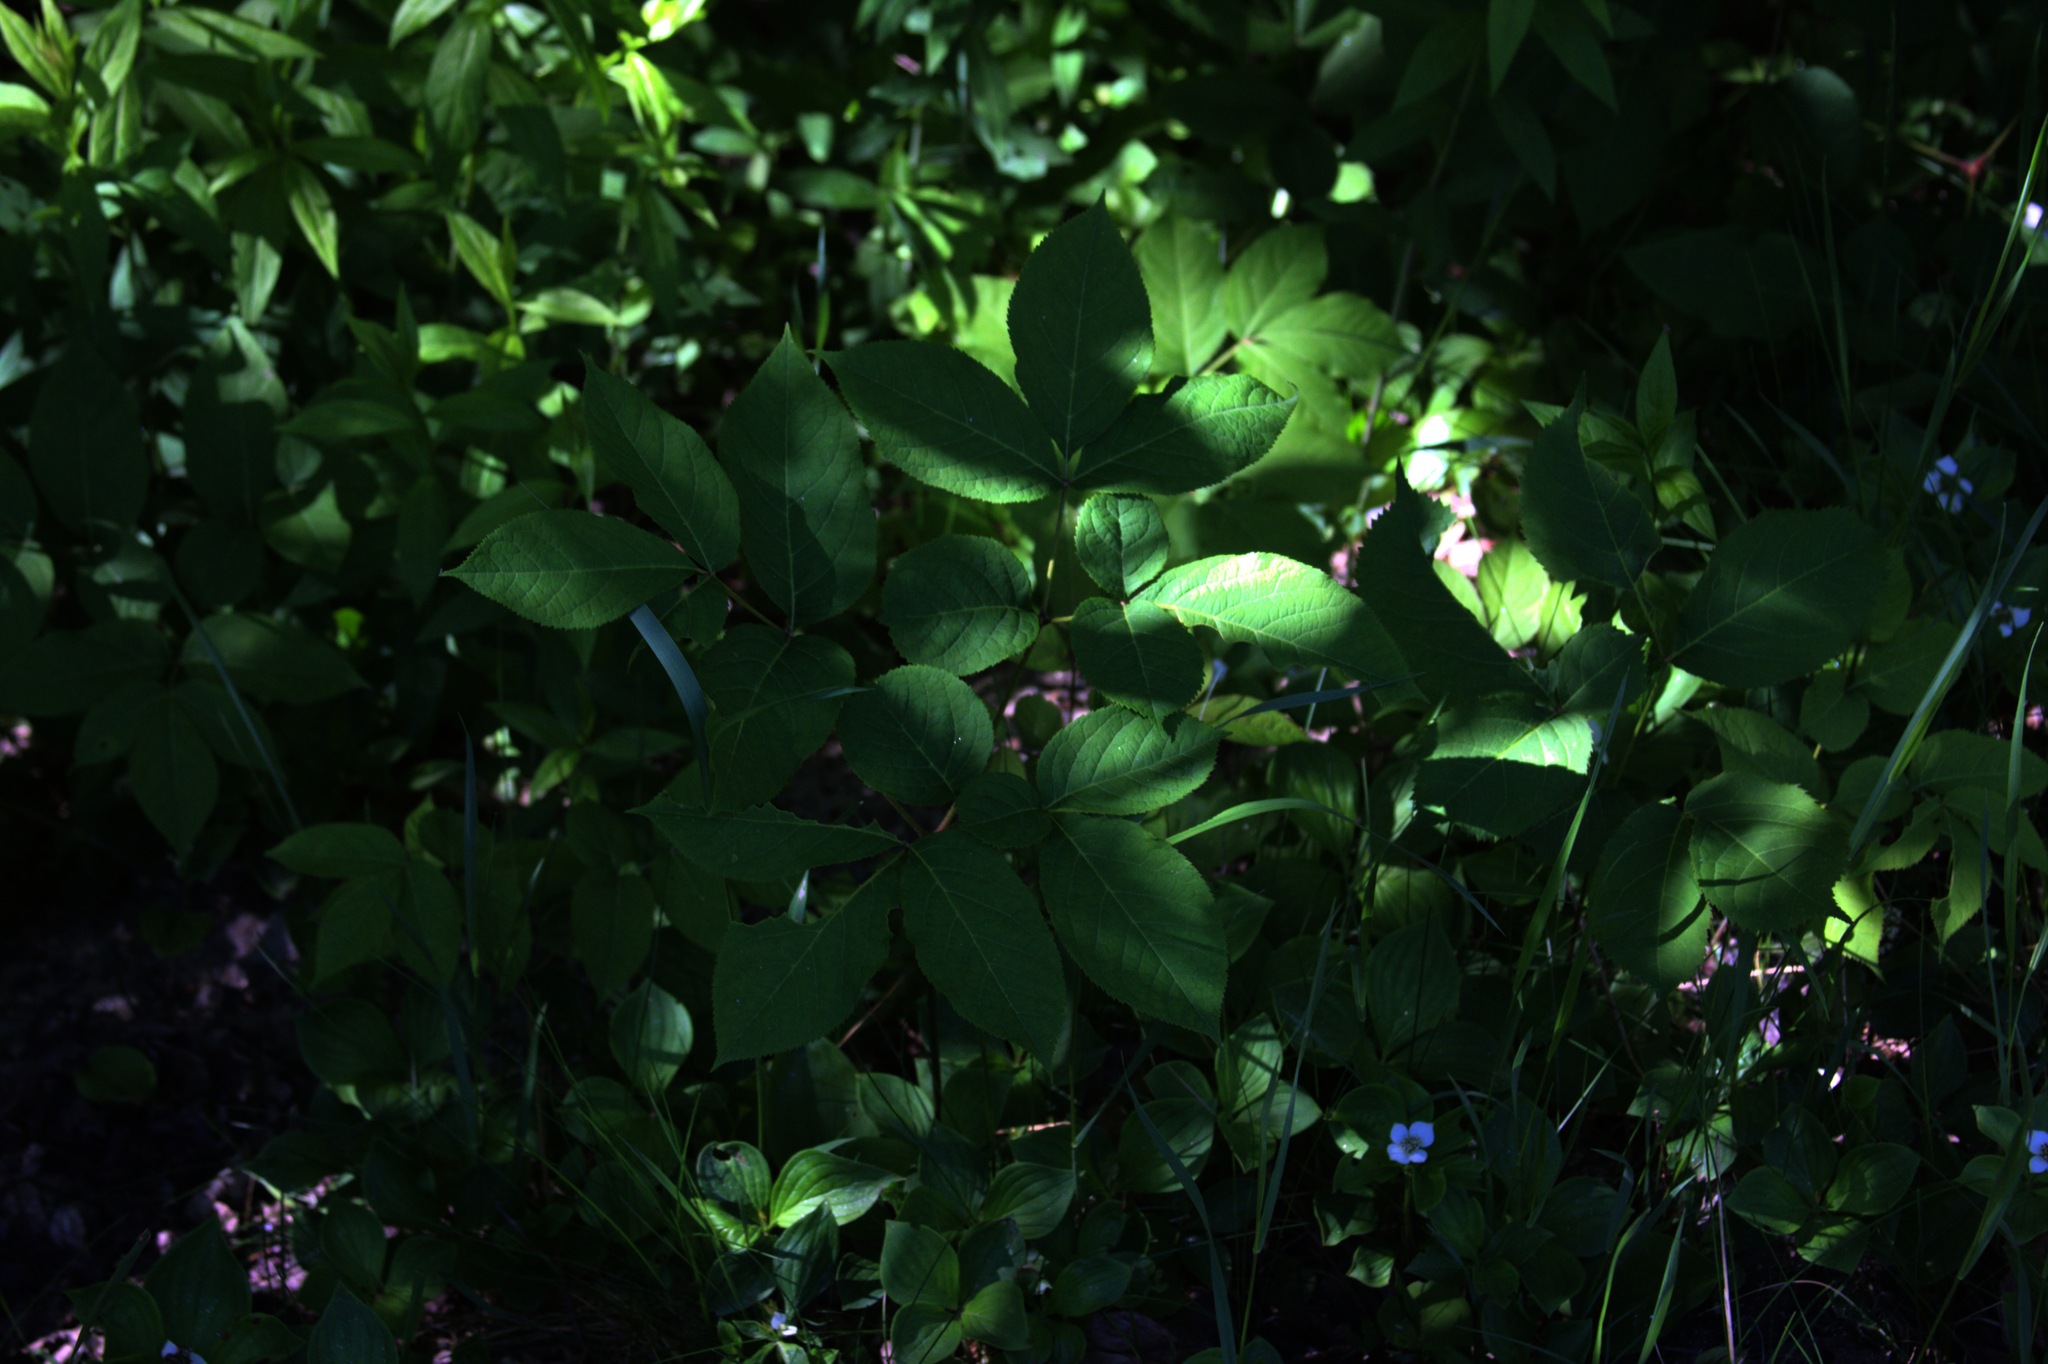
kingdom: Plantae
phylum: Tracheophyta
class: Magnoliopsida
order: Apiales
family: Araliaceae
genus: Aralia
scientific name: Aralia nudicaulis
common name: Wild sarsaparilla
